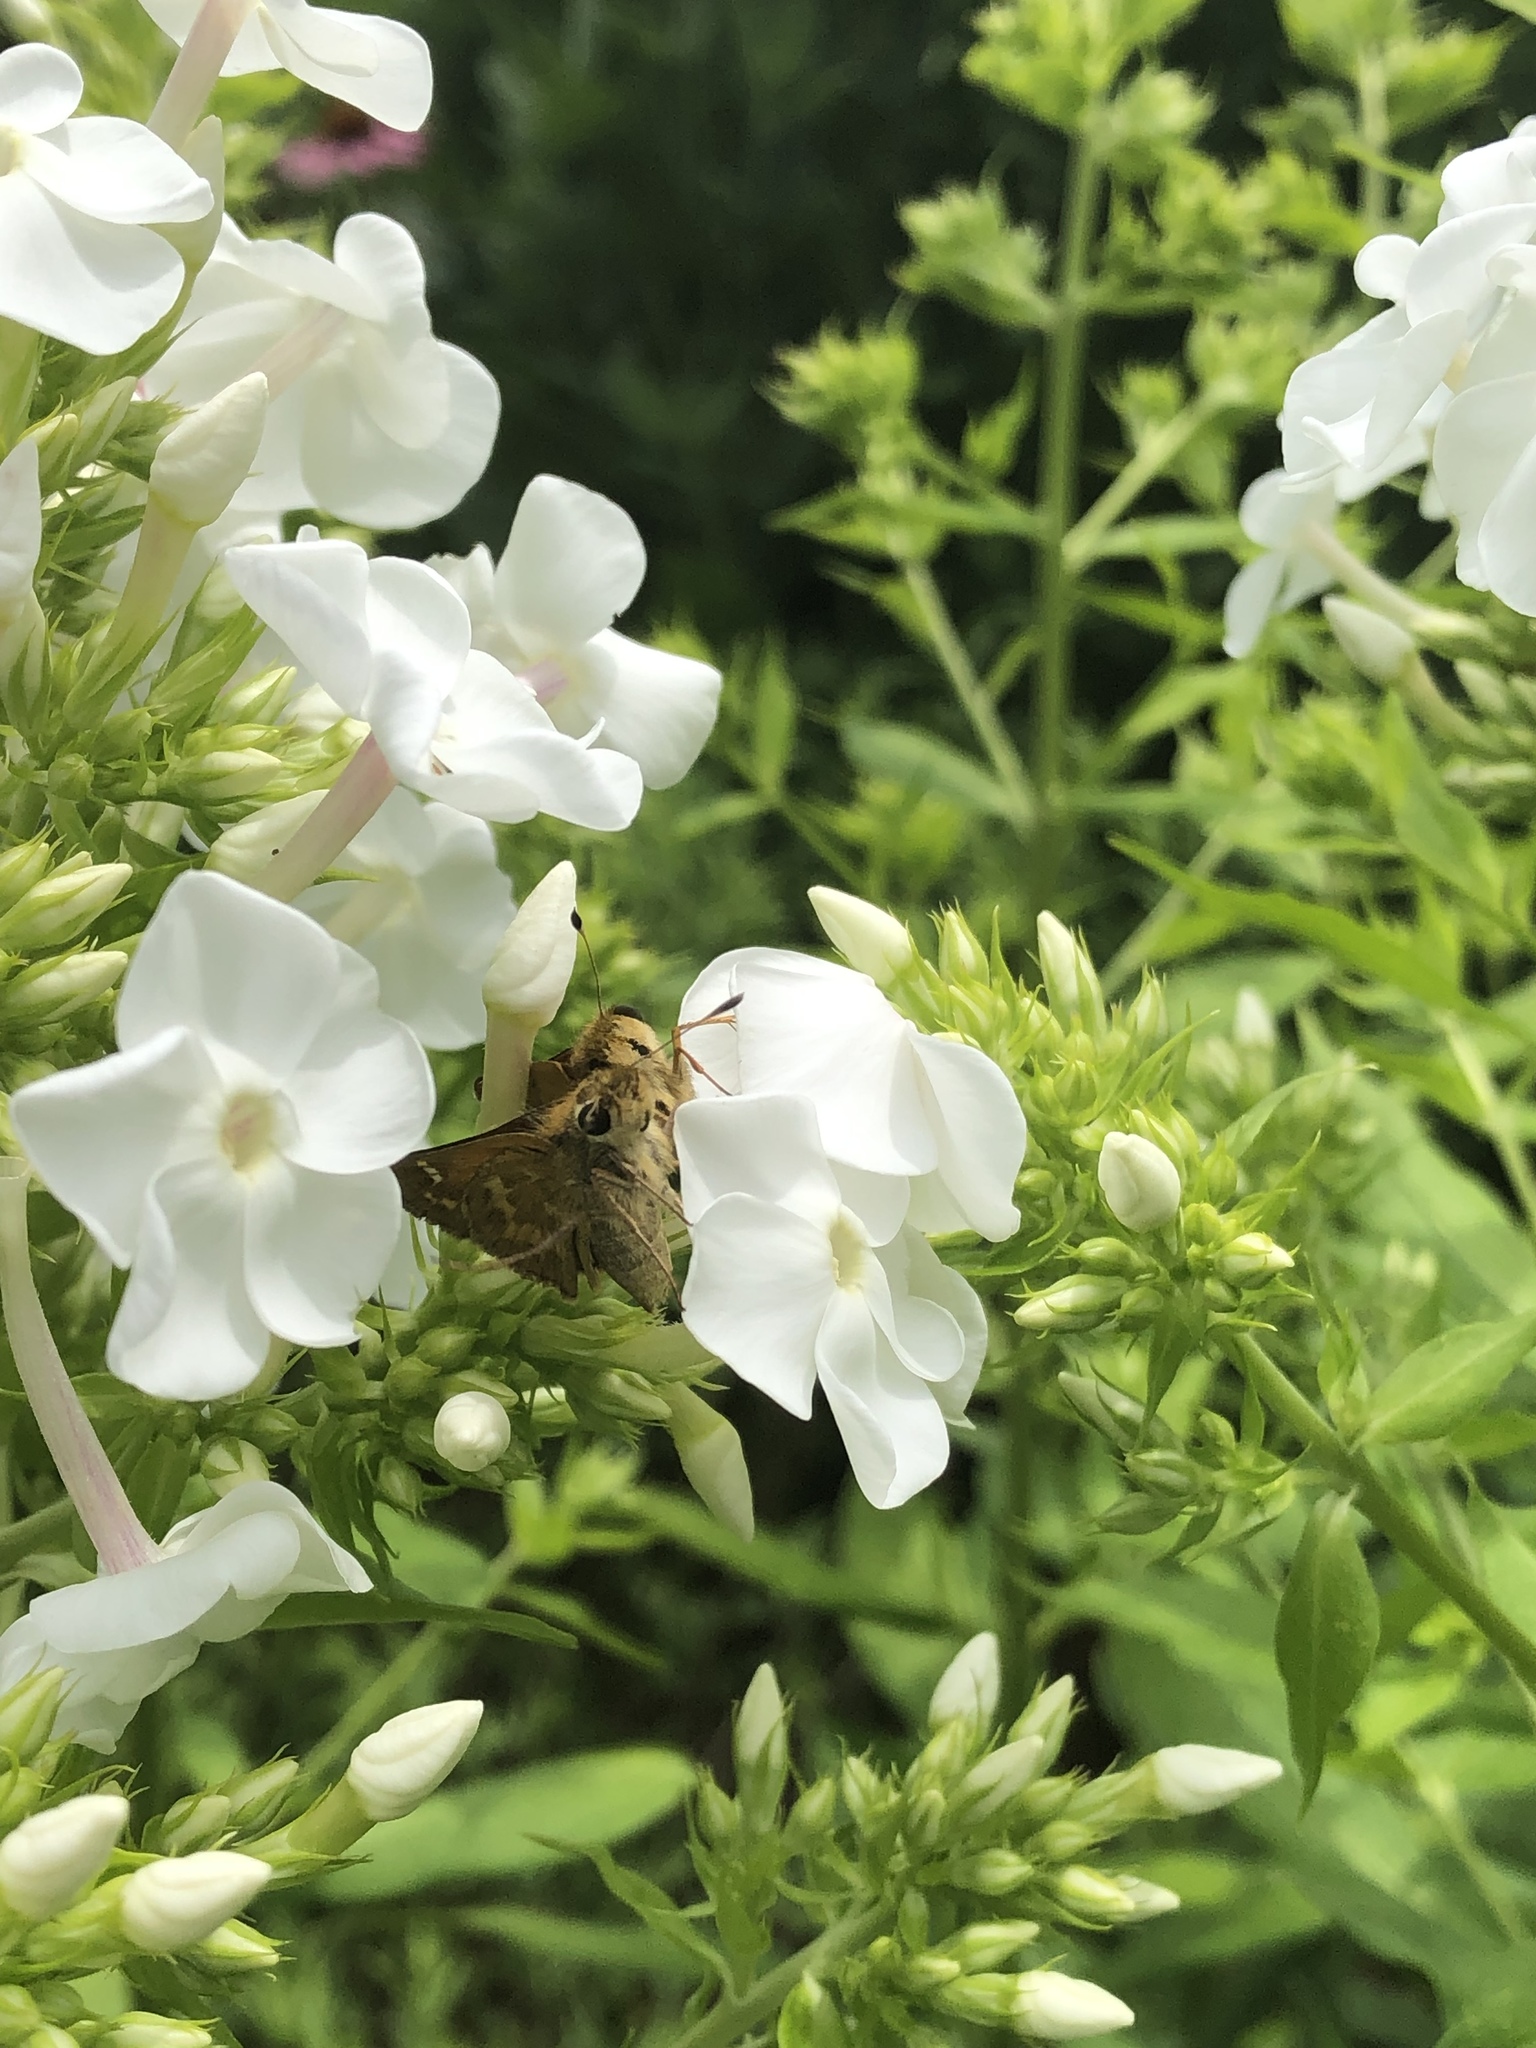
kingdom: Animalia
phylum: Arthropoda
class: Insecta
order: Lepidoptera
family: Hesperiidae
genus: Atalopedes
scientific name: Atalopedes
